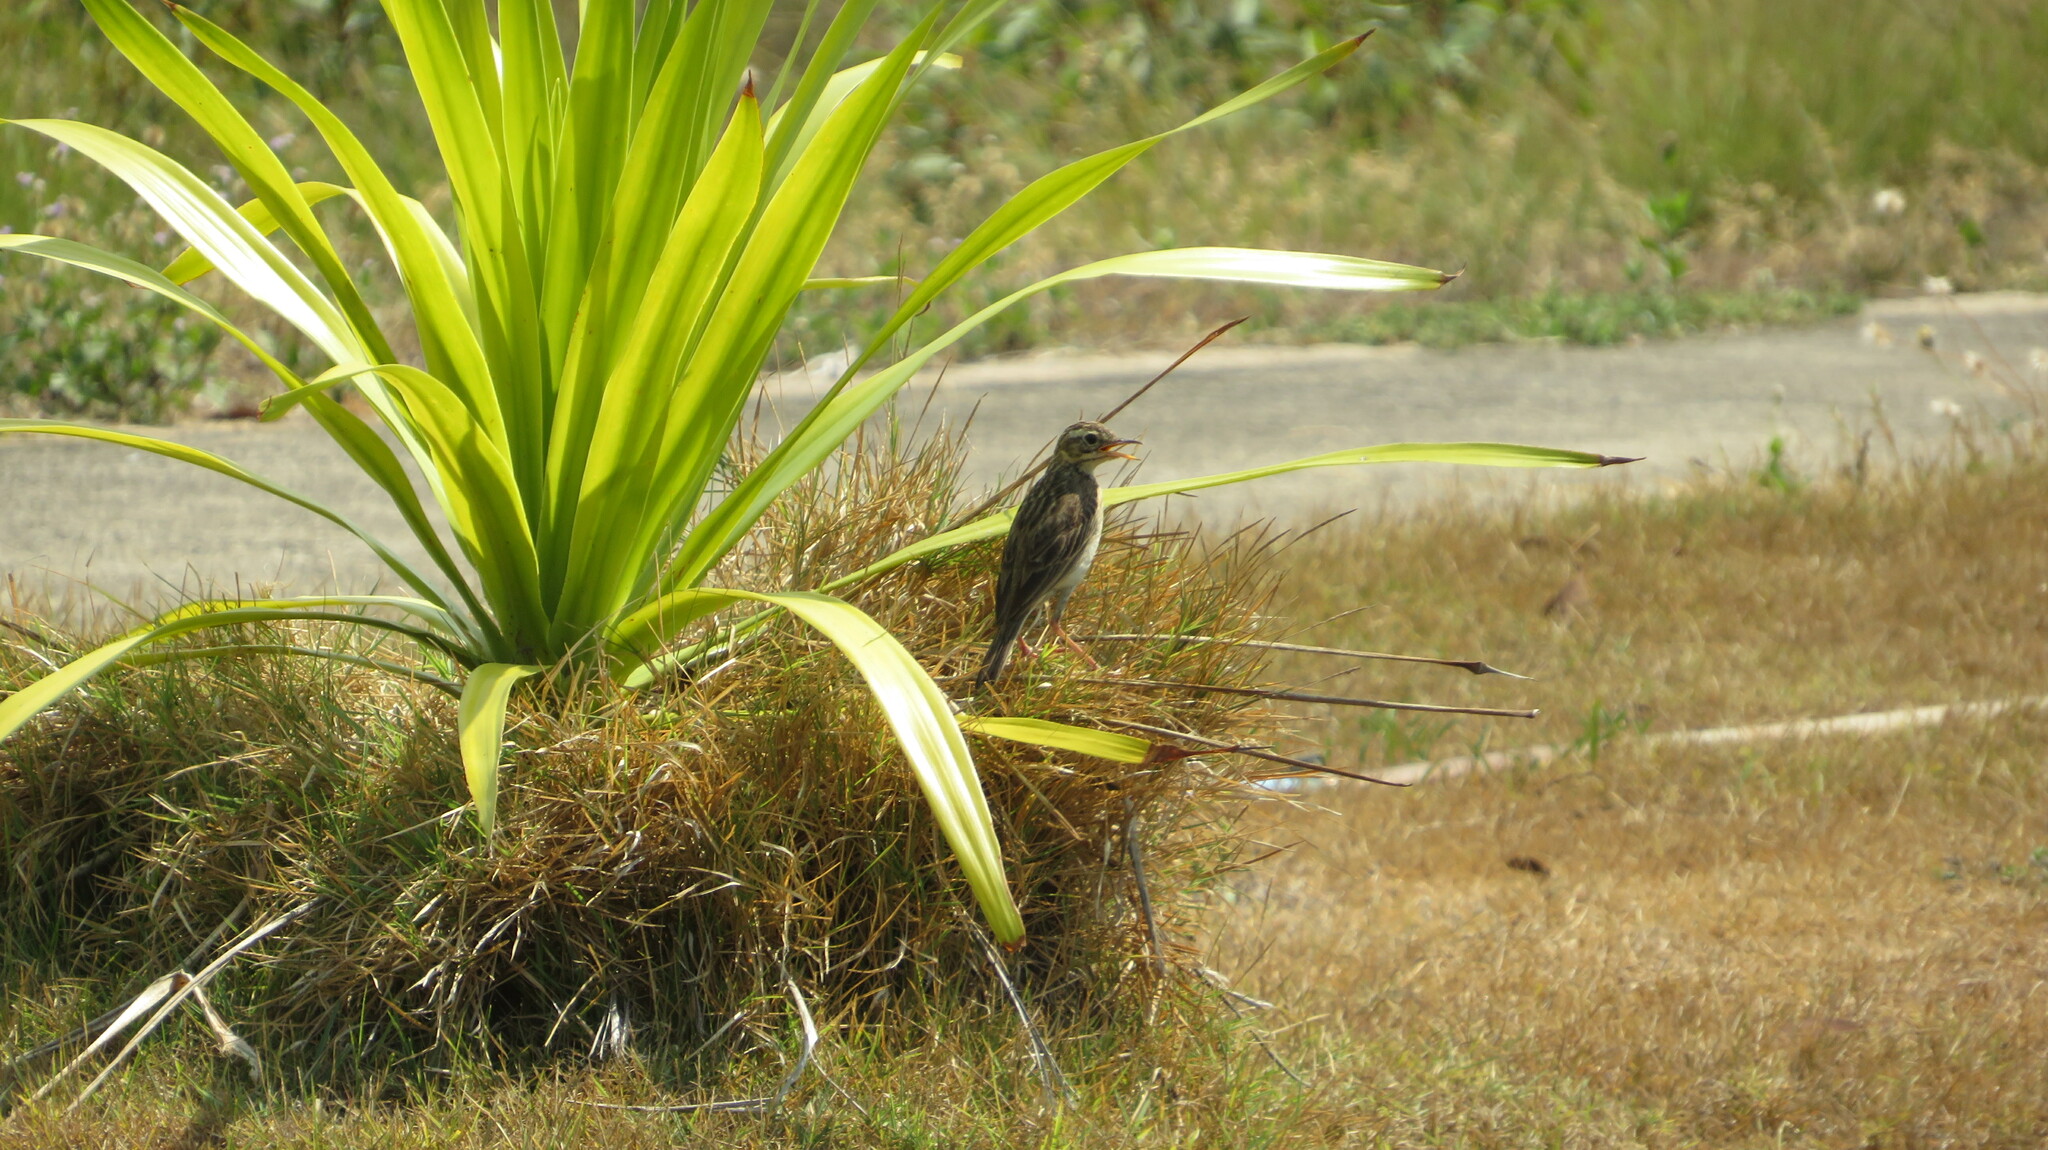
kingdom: Animalia
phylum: Chordata
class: Aves
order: Passeriformes
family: Motacillidae
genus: Anthus
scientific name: Anthus rufulus
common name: Paddyfield pipit
